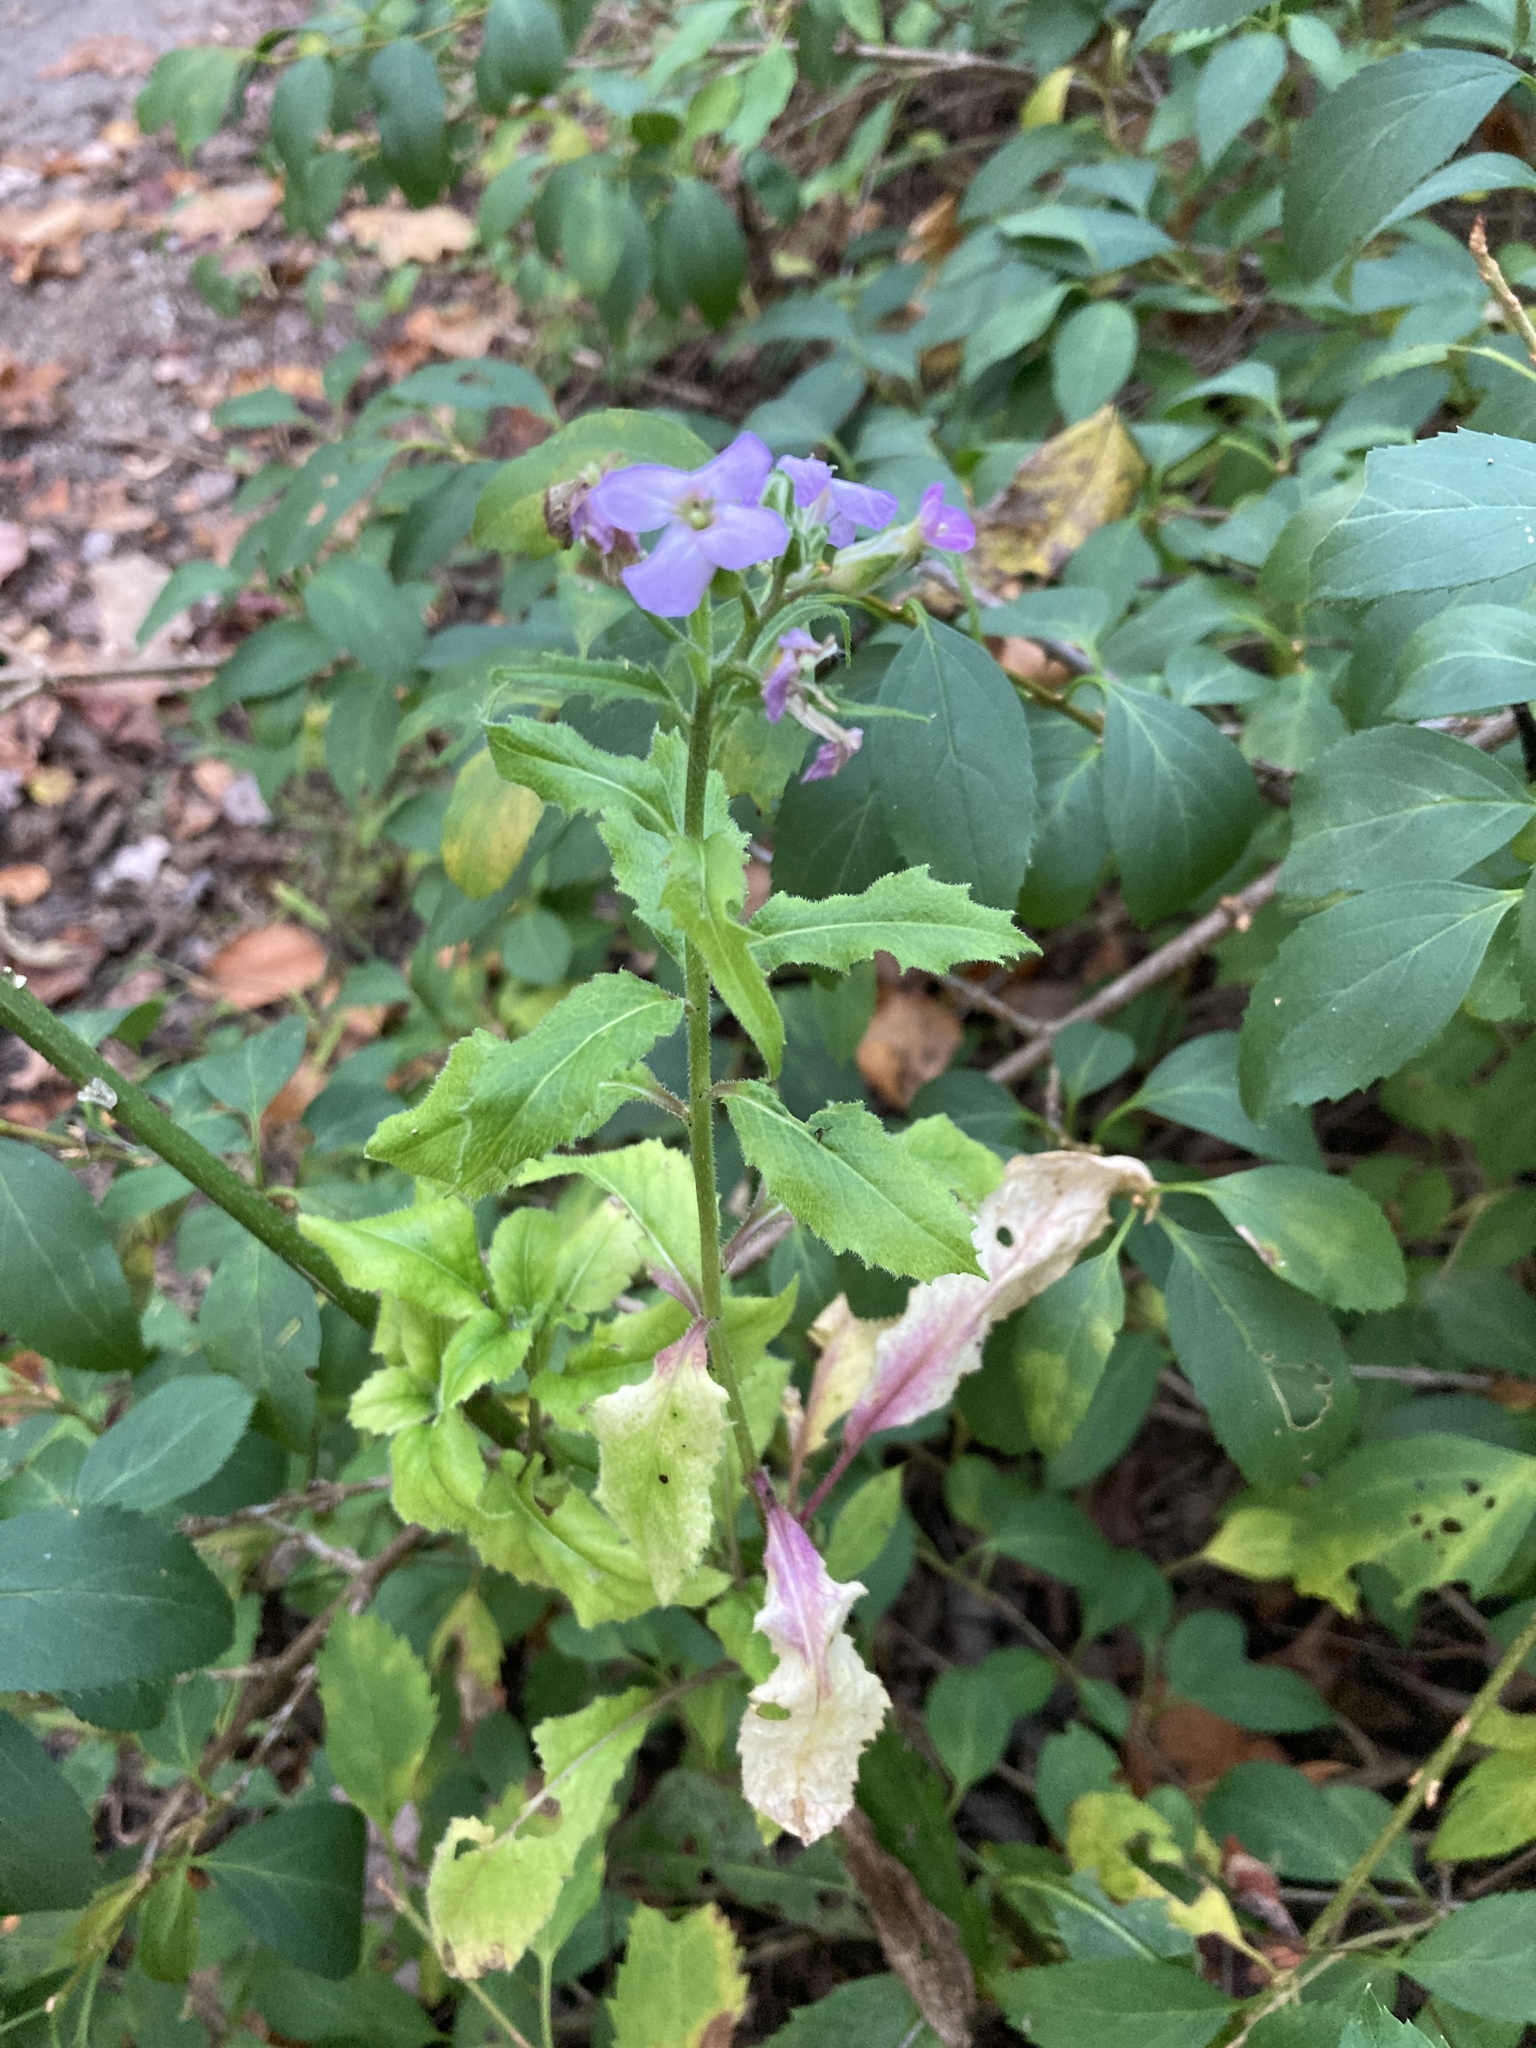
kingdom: Plantae
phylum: Tracheophyta
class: Magnoliopsida
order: Brassicales
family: Brassicaceae
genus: Hesperis
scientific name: Hesperis matronalis
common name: Dame's-violet
